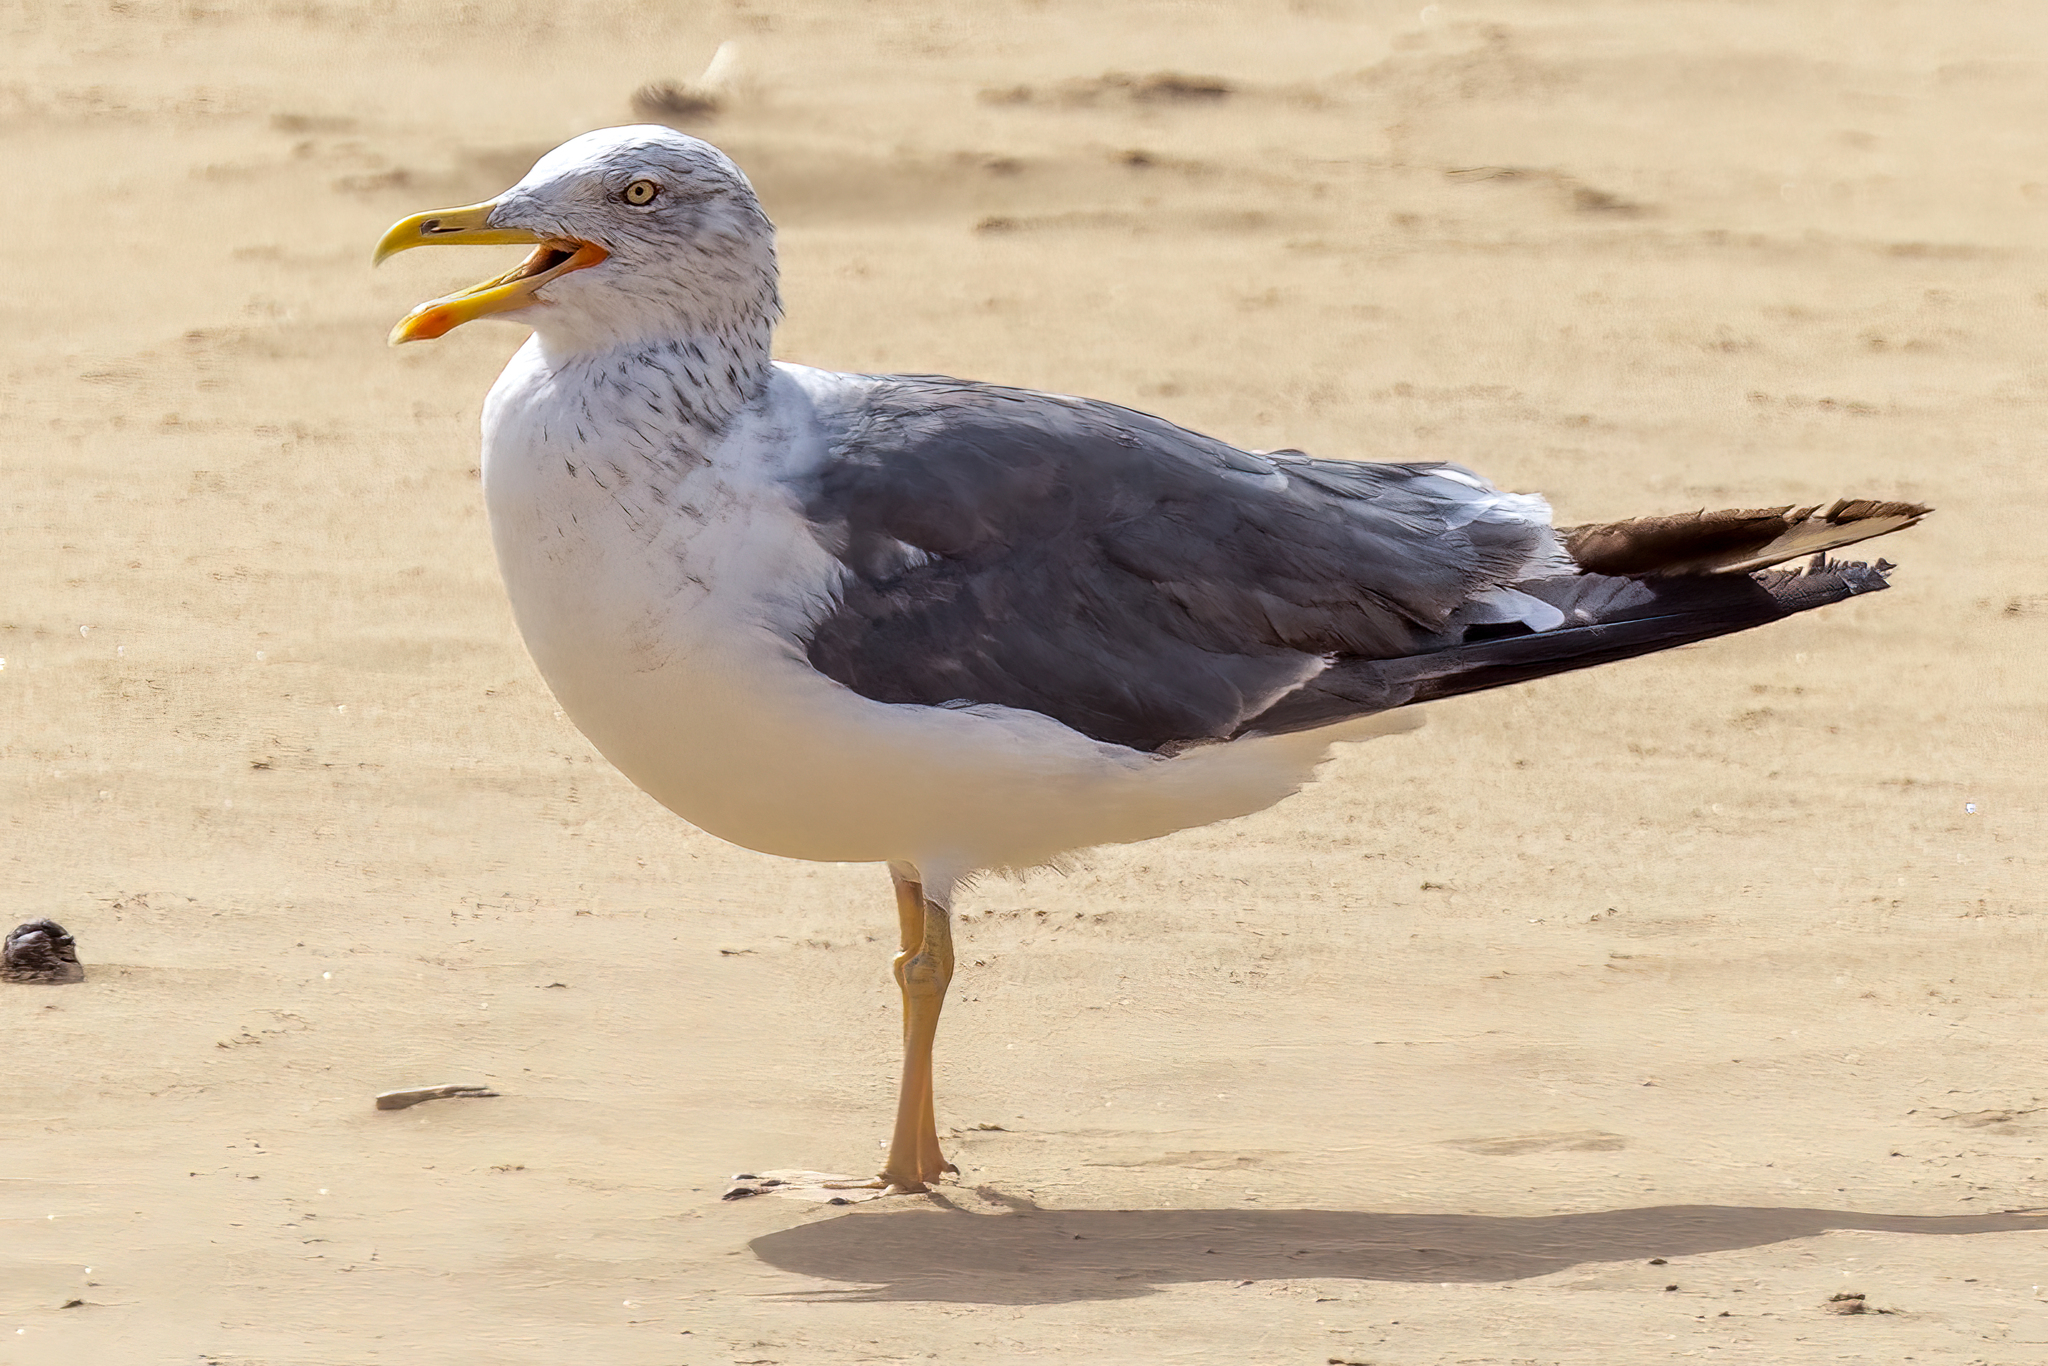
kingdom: Animalia
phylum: Chordata
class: Aves
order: Charadriiformes
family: Laridae
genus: Larus
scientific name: Larus fuscus
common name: Lesser black-backed gull
